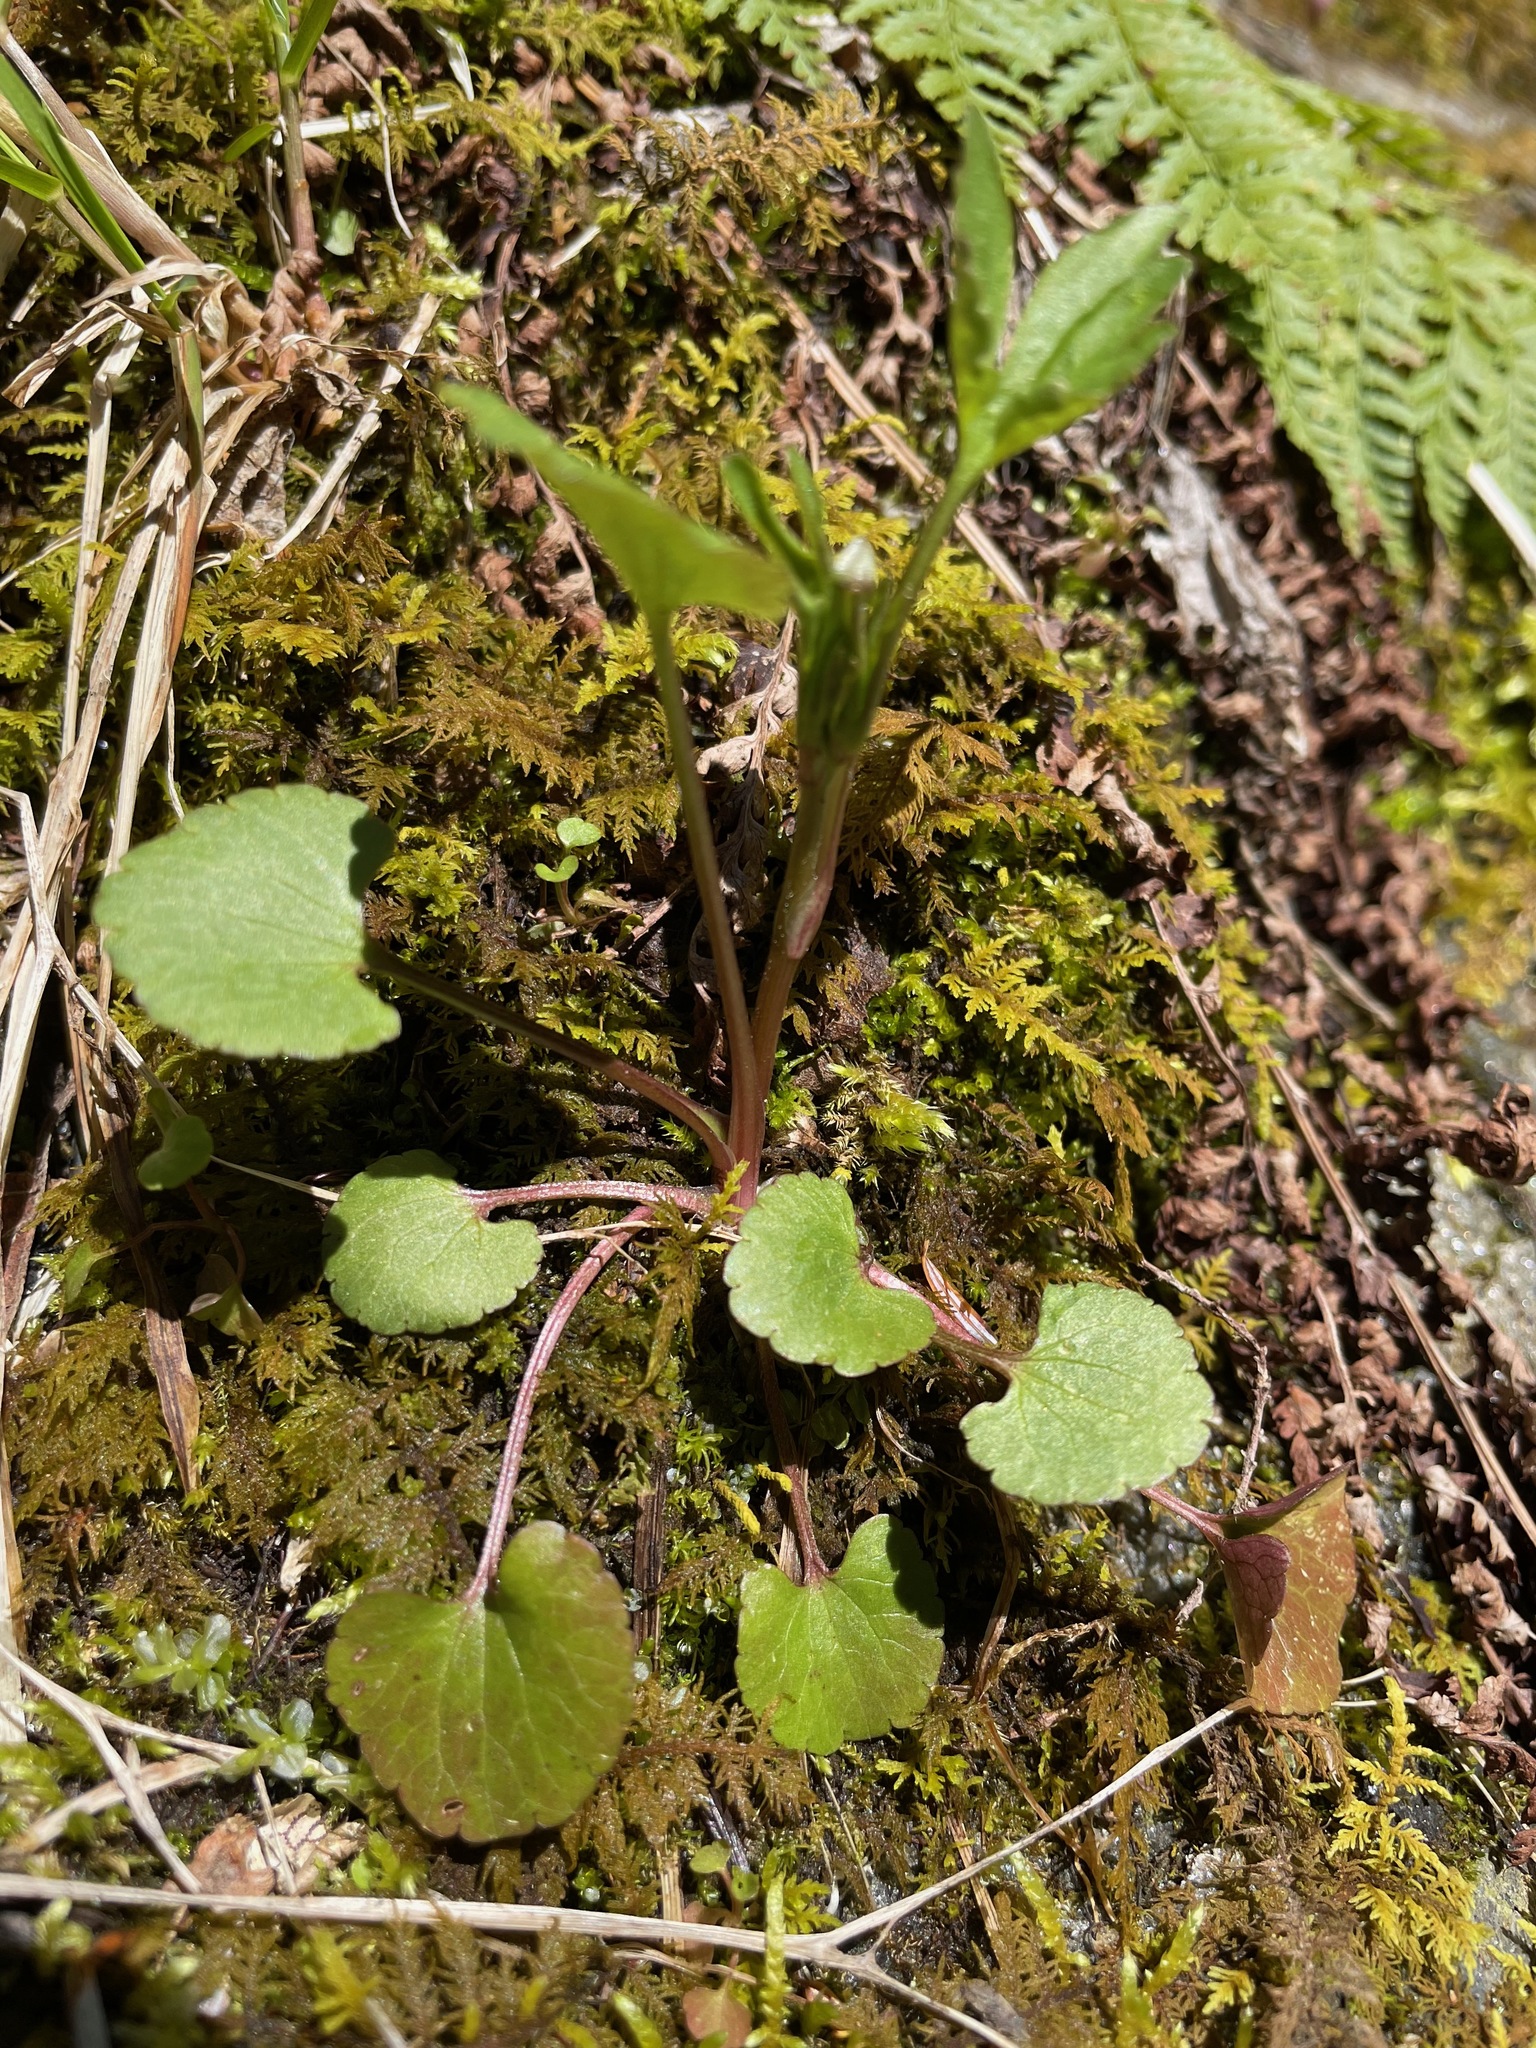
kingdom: Plantae
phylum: Tracheophyta
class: Magnoliopsida
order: Ranunculales
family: Ranunculaceae
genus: Ranunculus
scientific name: Ranunculus abortivus
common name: Early wood buttercup
